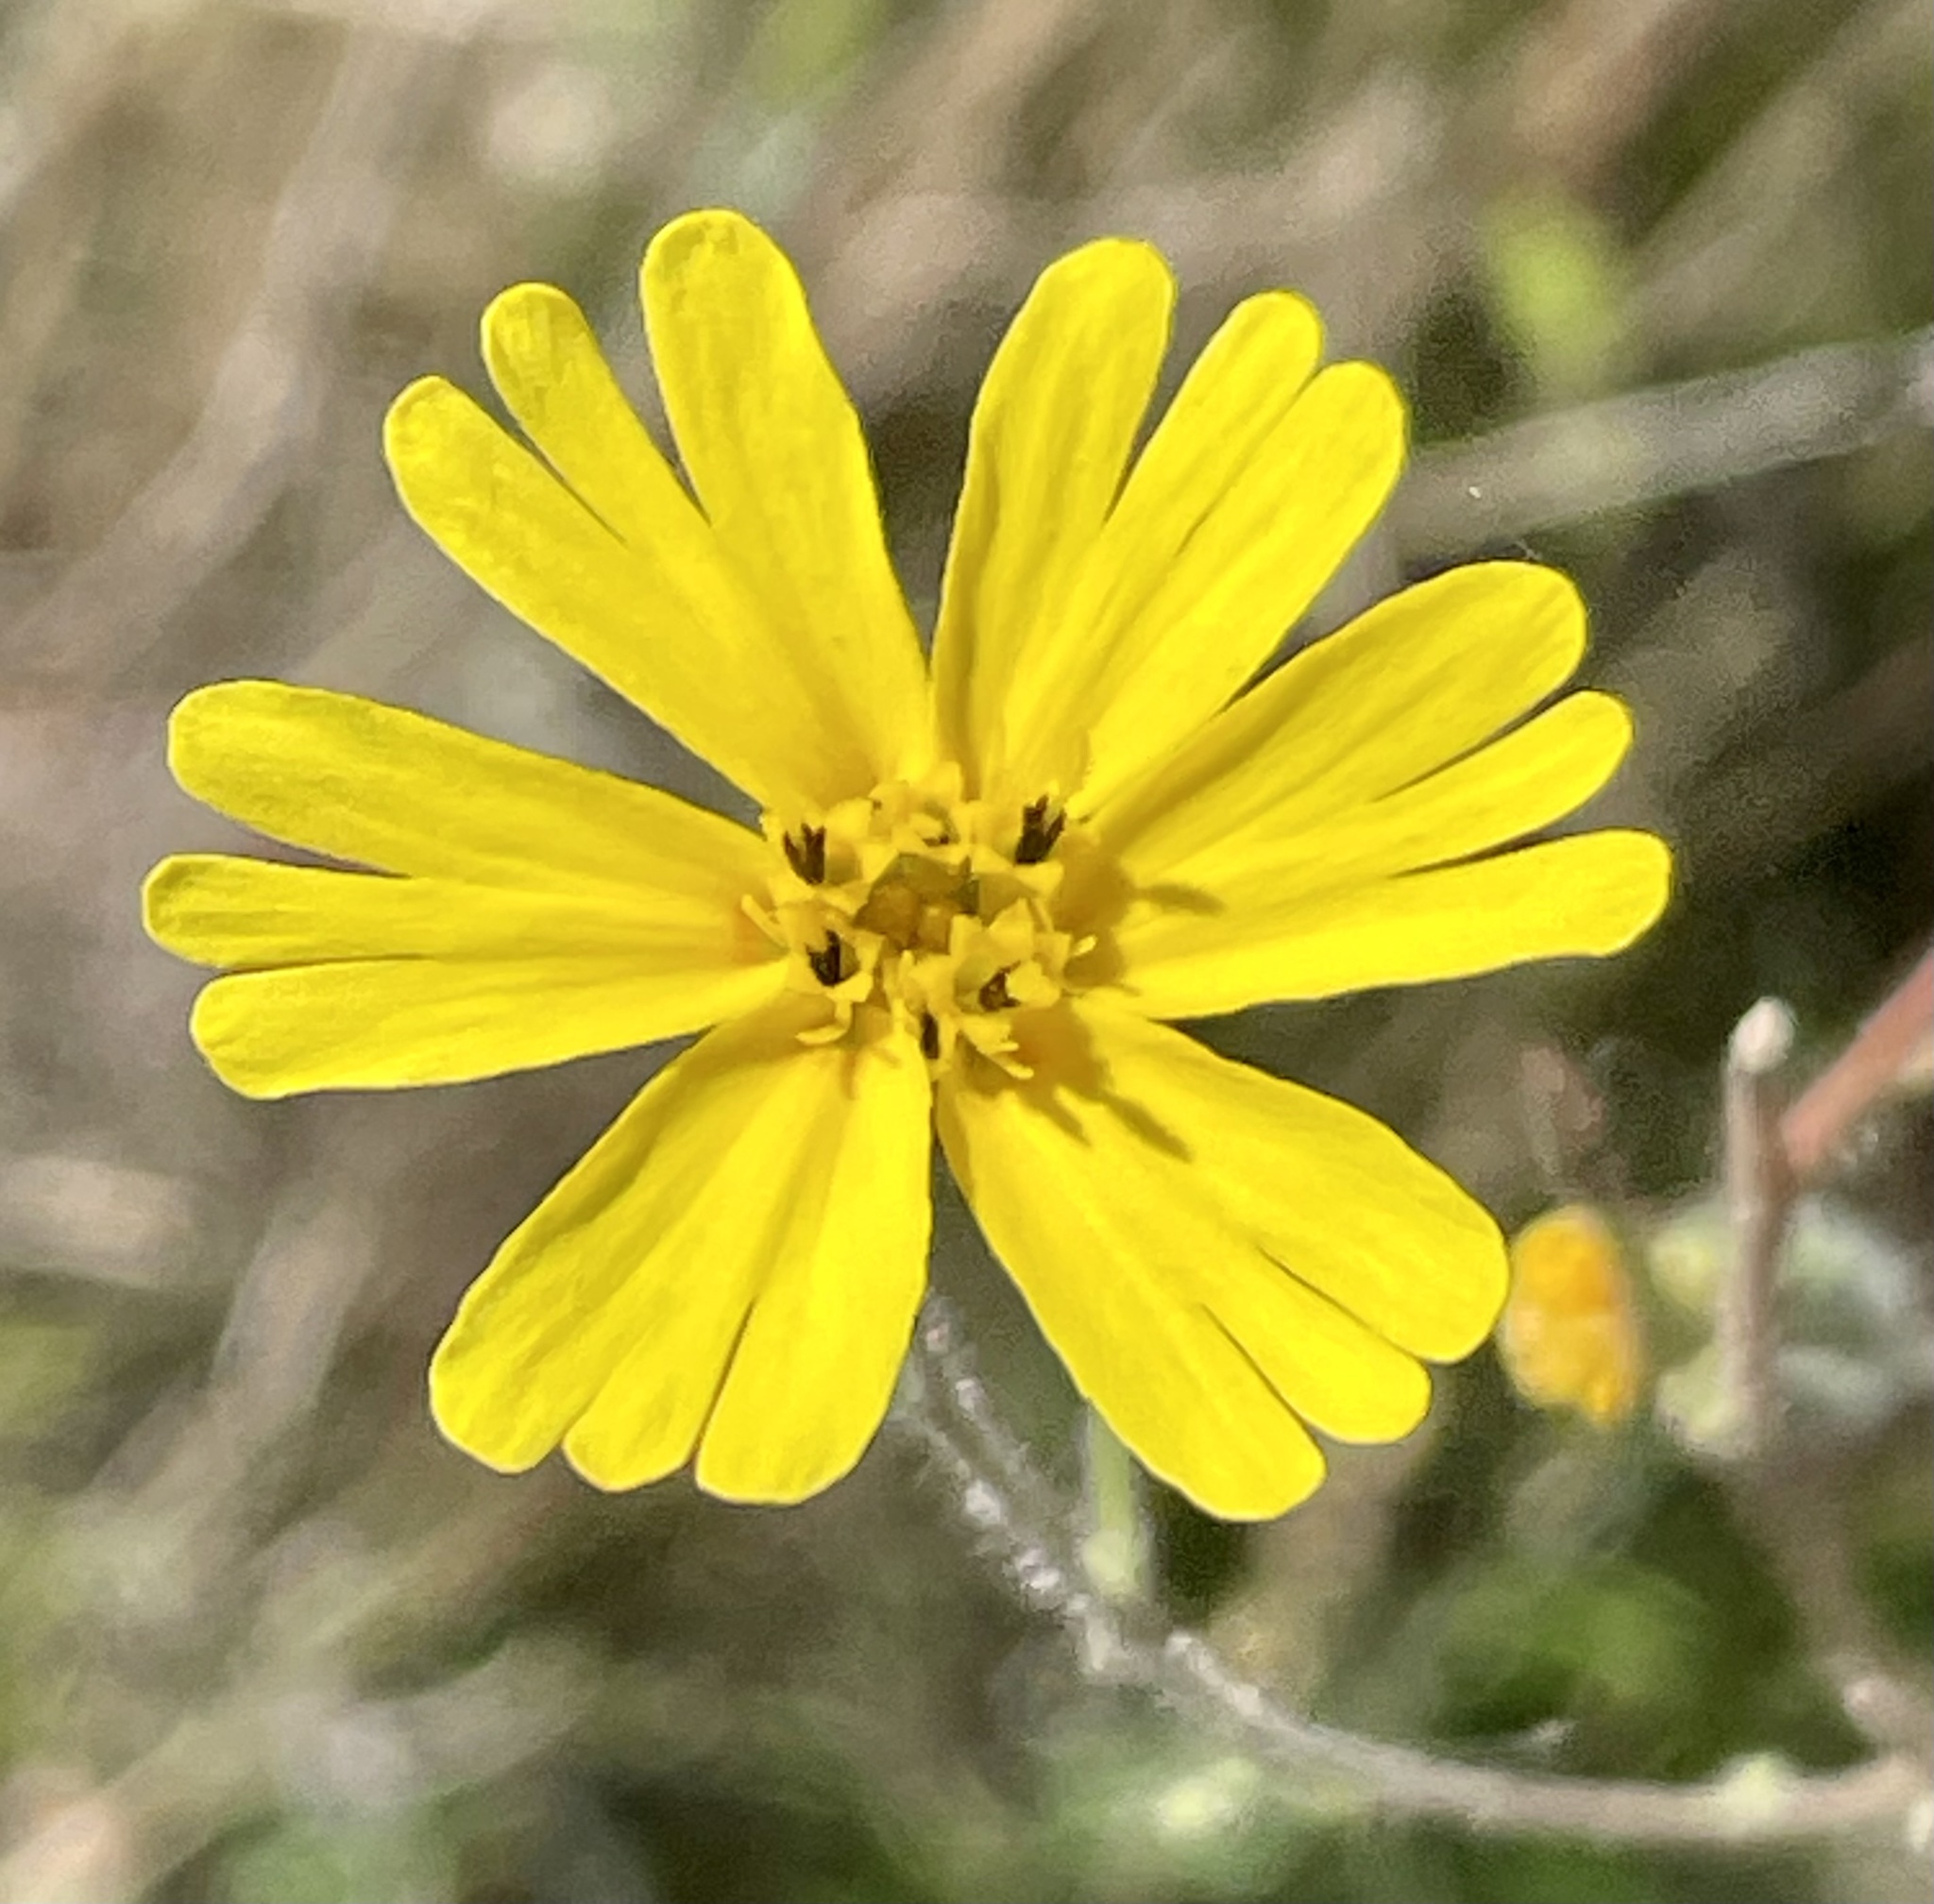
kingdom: Plantae
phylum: Tracheophyta
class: Magnoliopsida
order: Asterales
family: Asteraceae
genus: Madia
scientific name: Madia elegans
